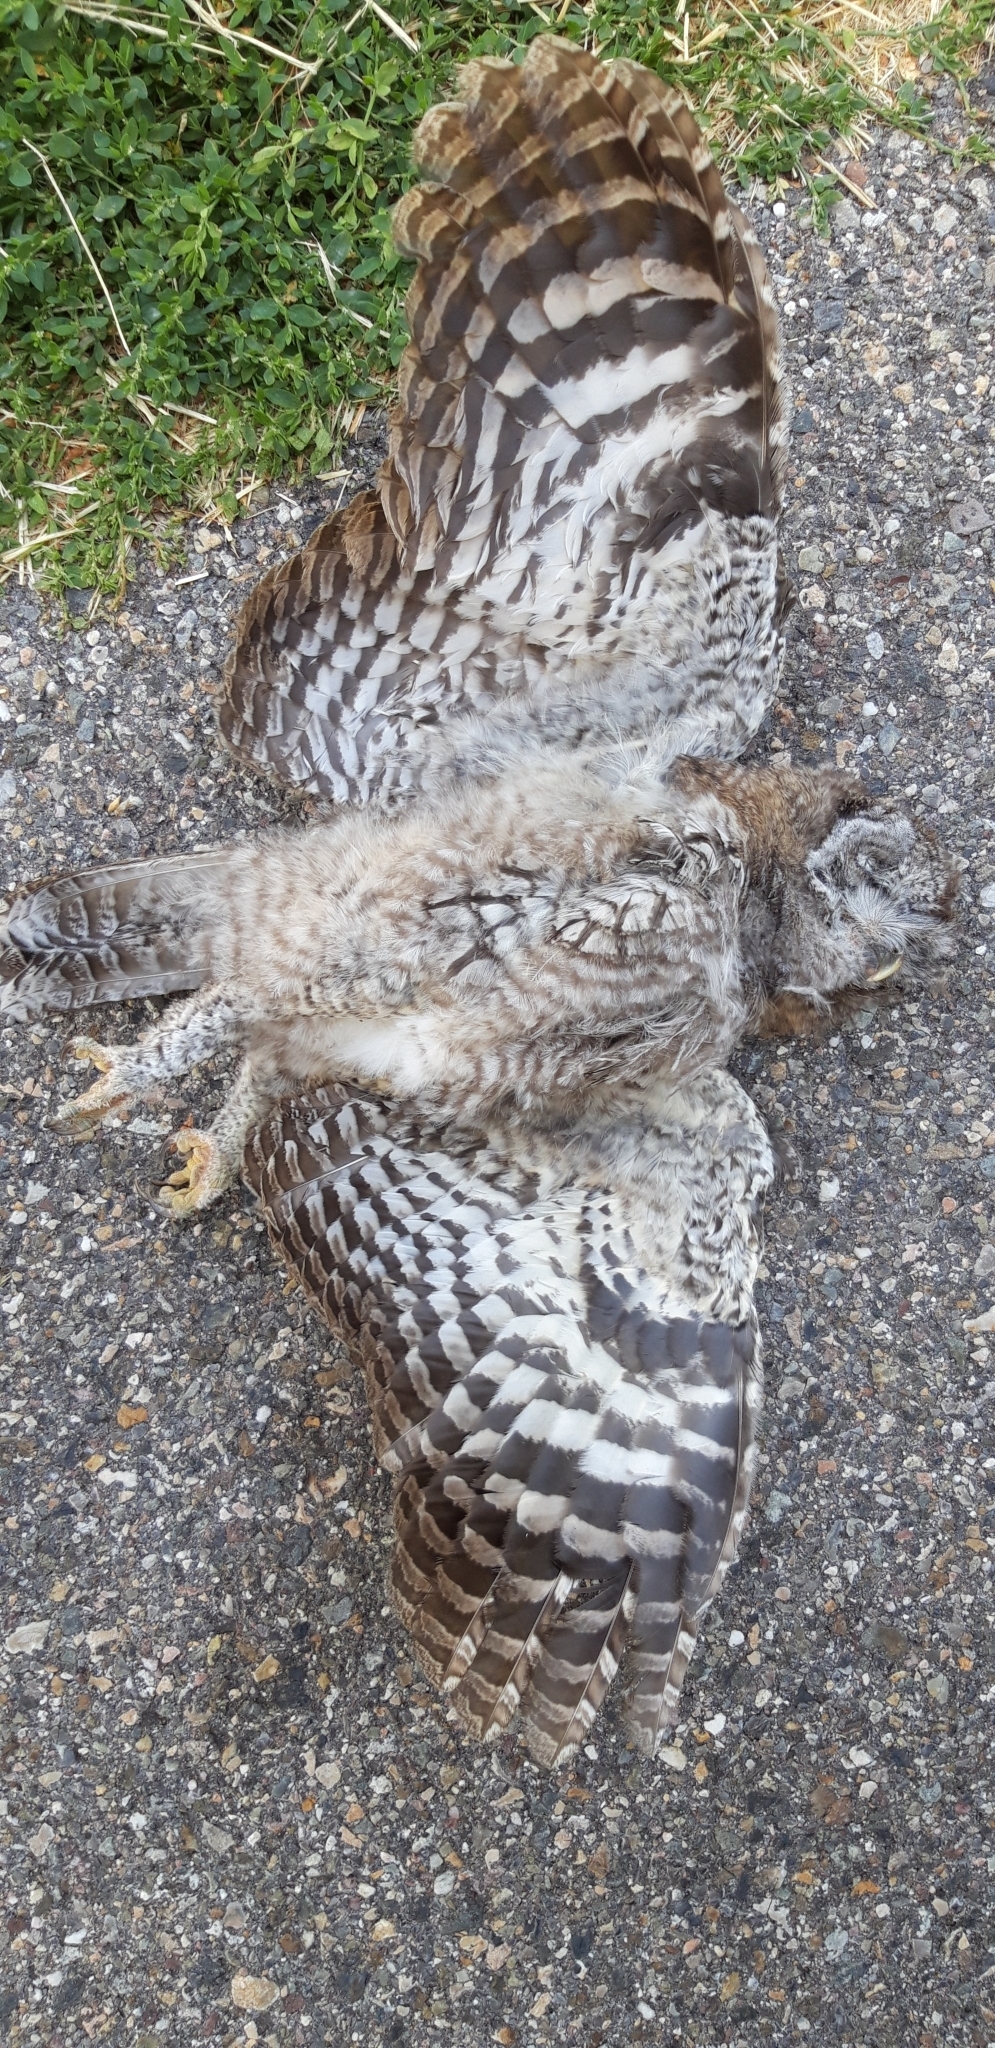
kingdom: Animalia
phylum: Chordata
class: Aves
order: Strigiformes
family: Strigidae
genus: Strix
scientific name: Strix aluco
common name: Tawny owl
